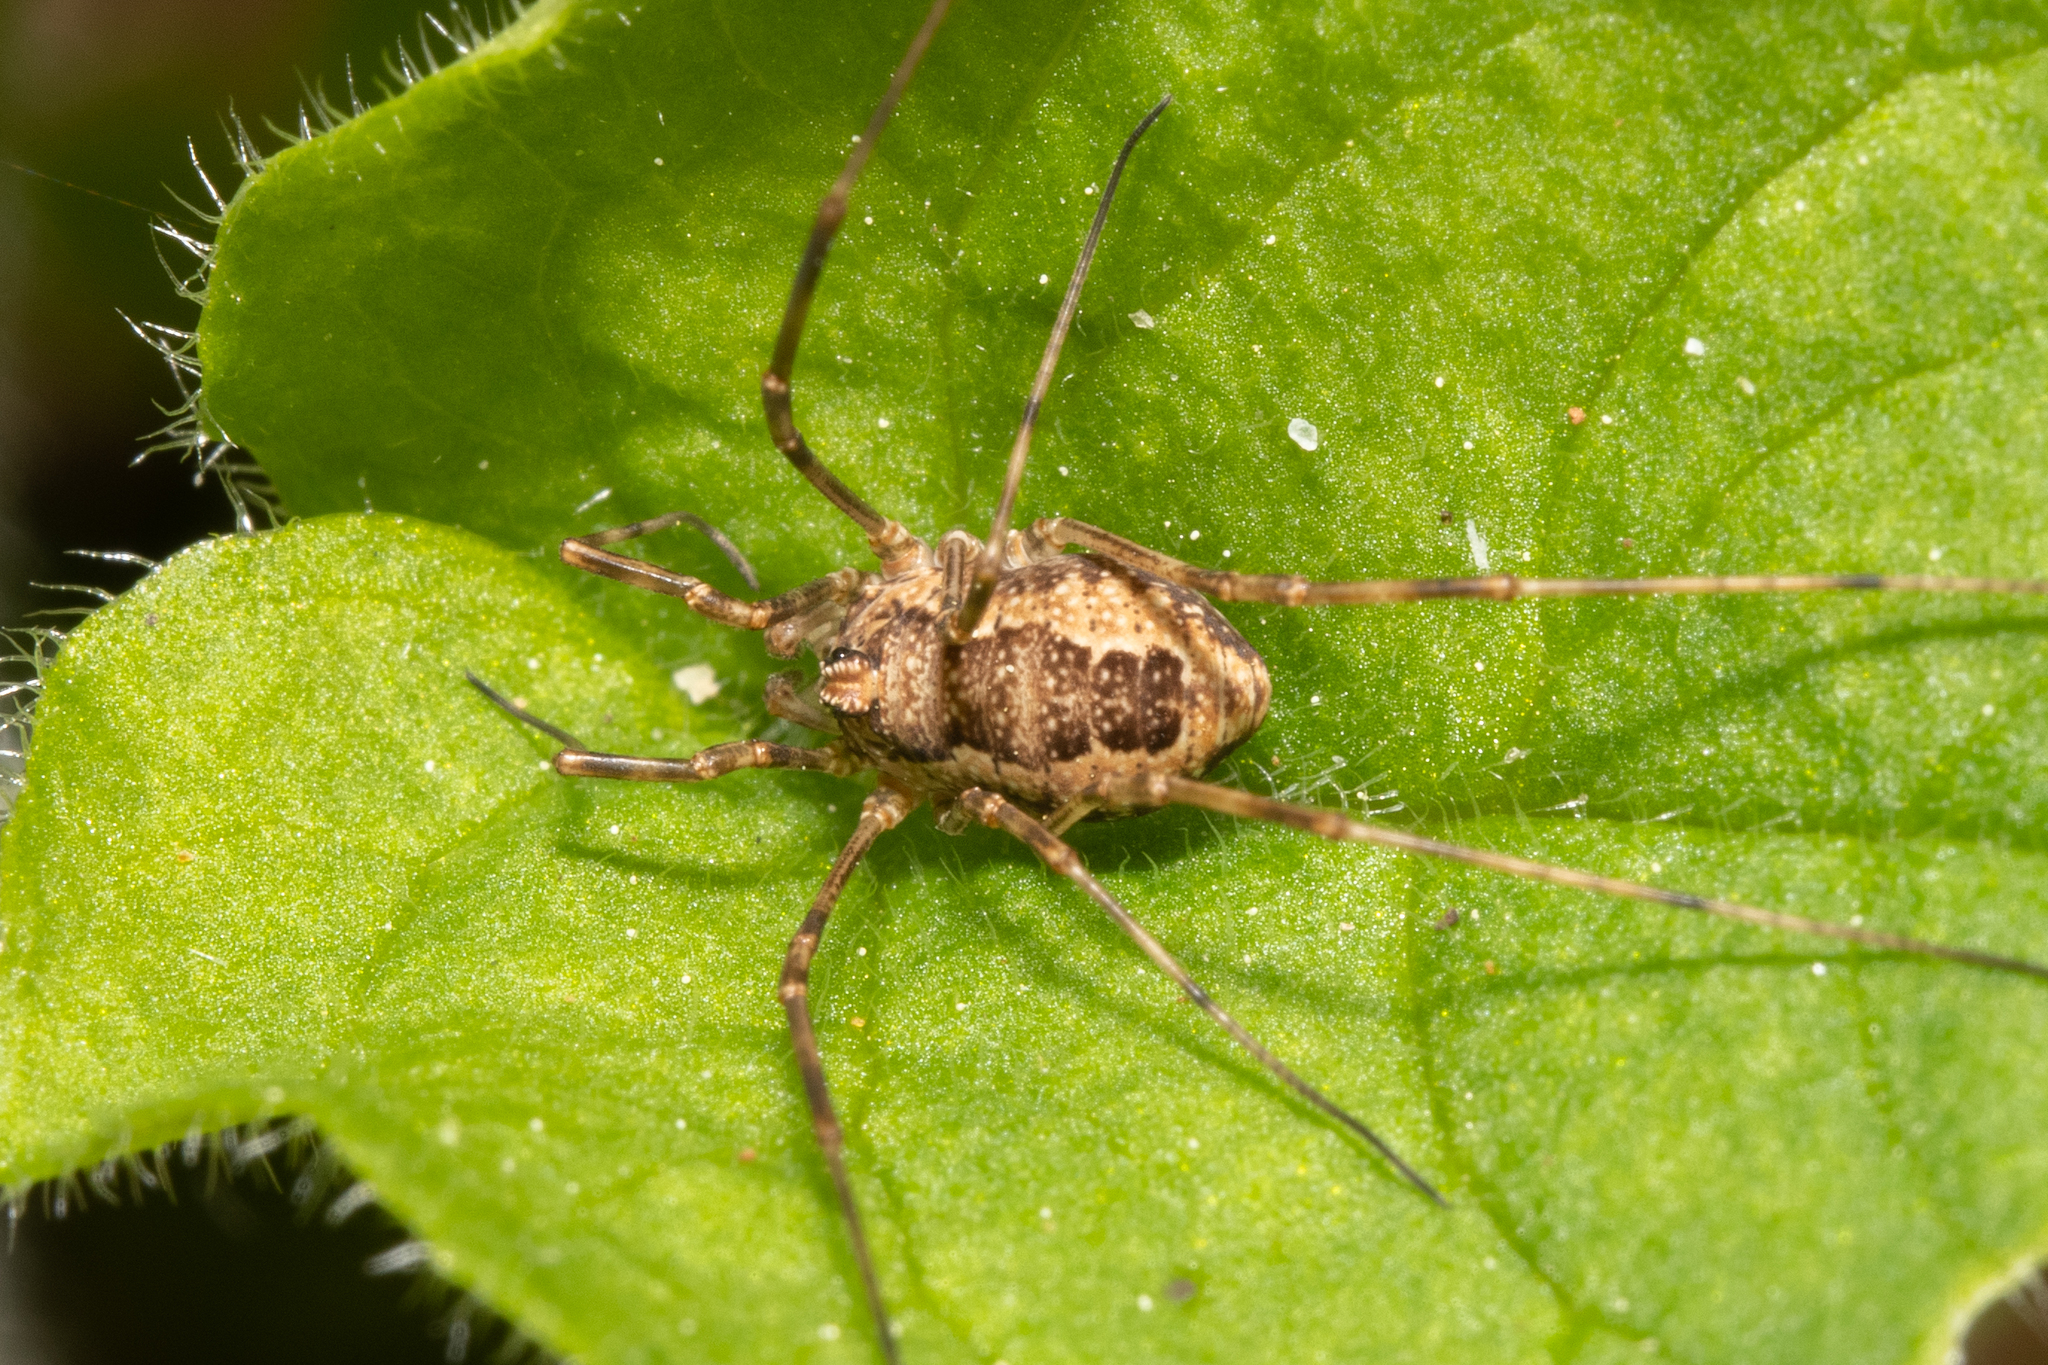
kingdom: Animalia
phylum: Arthropoda
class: Arachnida
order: Opiliones
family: Phalangiidae
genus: Rilaena
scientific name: Rilaena triangularis
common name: Spring harvestman
